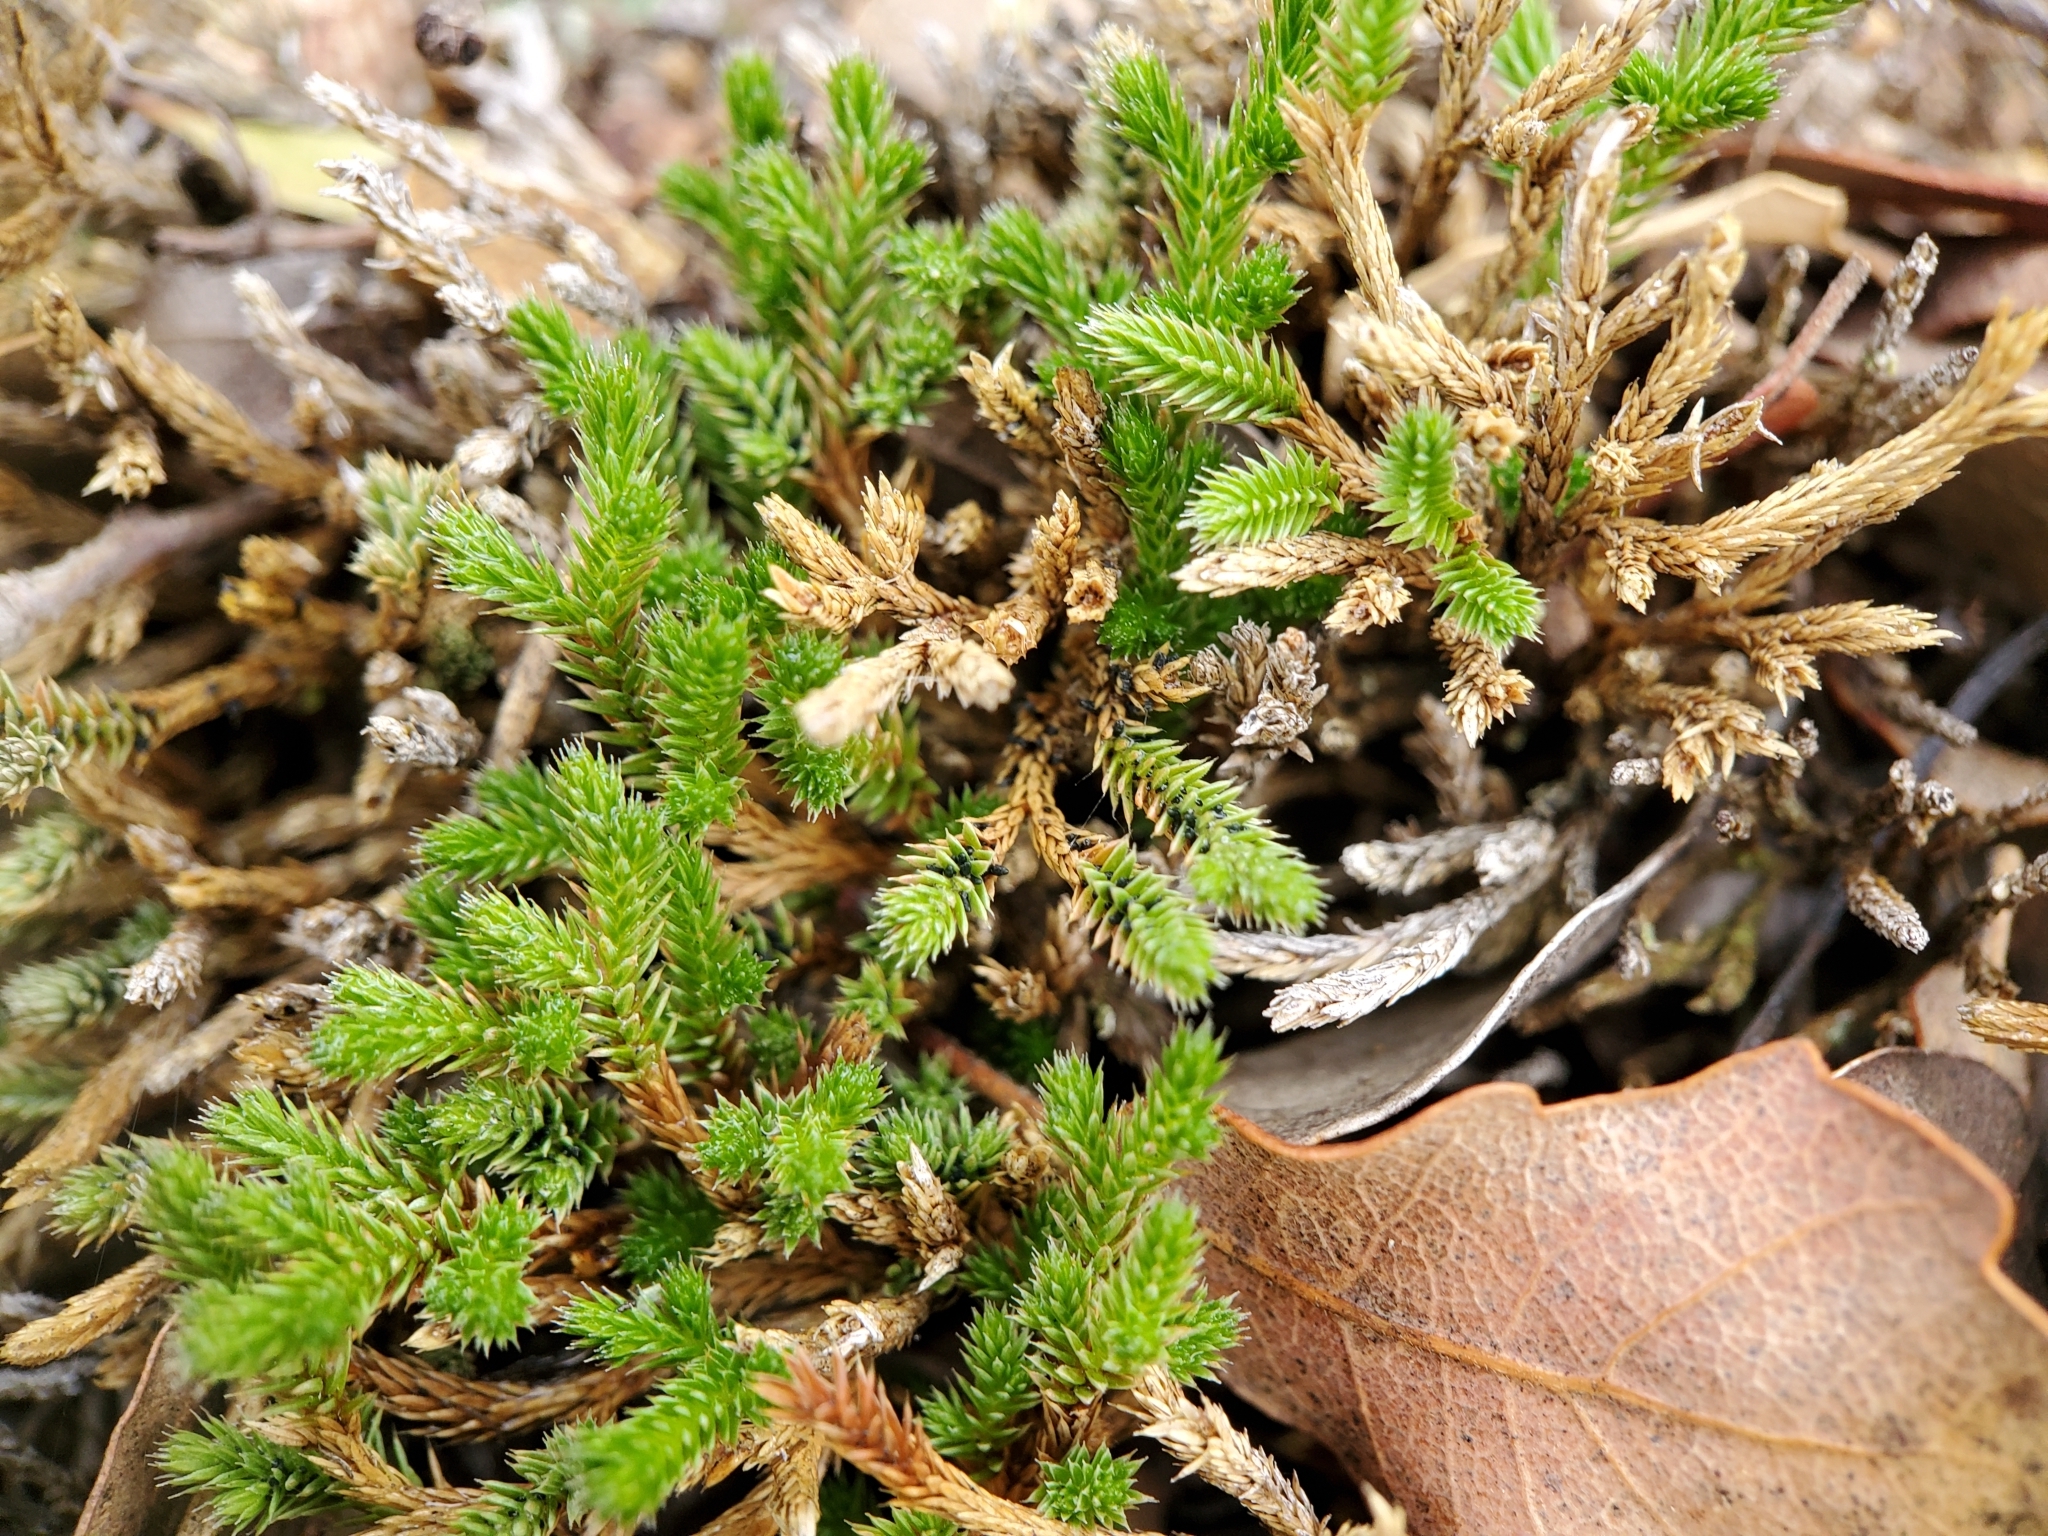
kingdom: Plantae
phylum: Tracheophyta
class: Lycopodiopsida
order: Selaginellales
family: Selaginellaceae
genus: Selaginella
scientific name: Selaginella bigelovii
